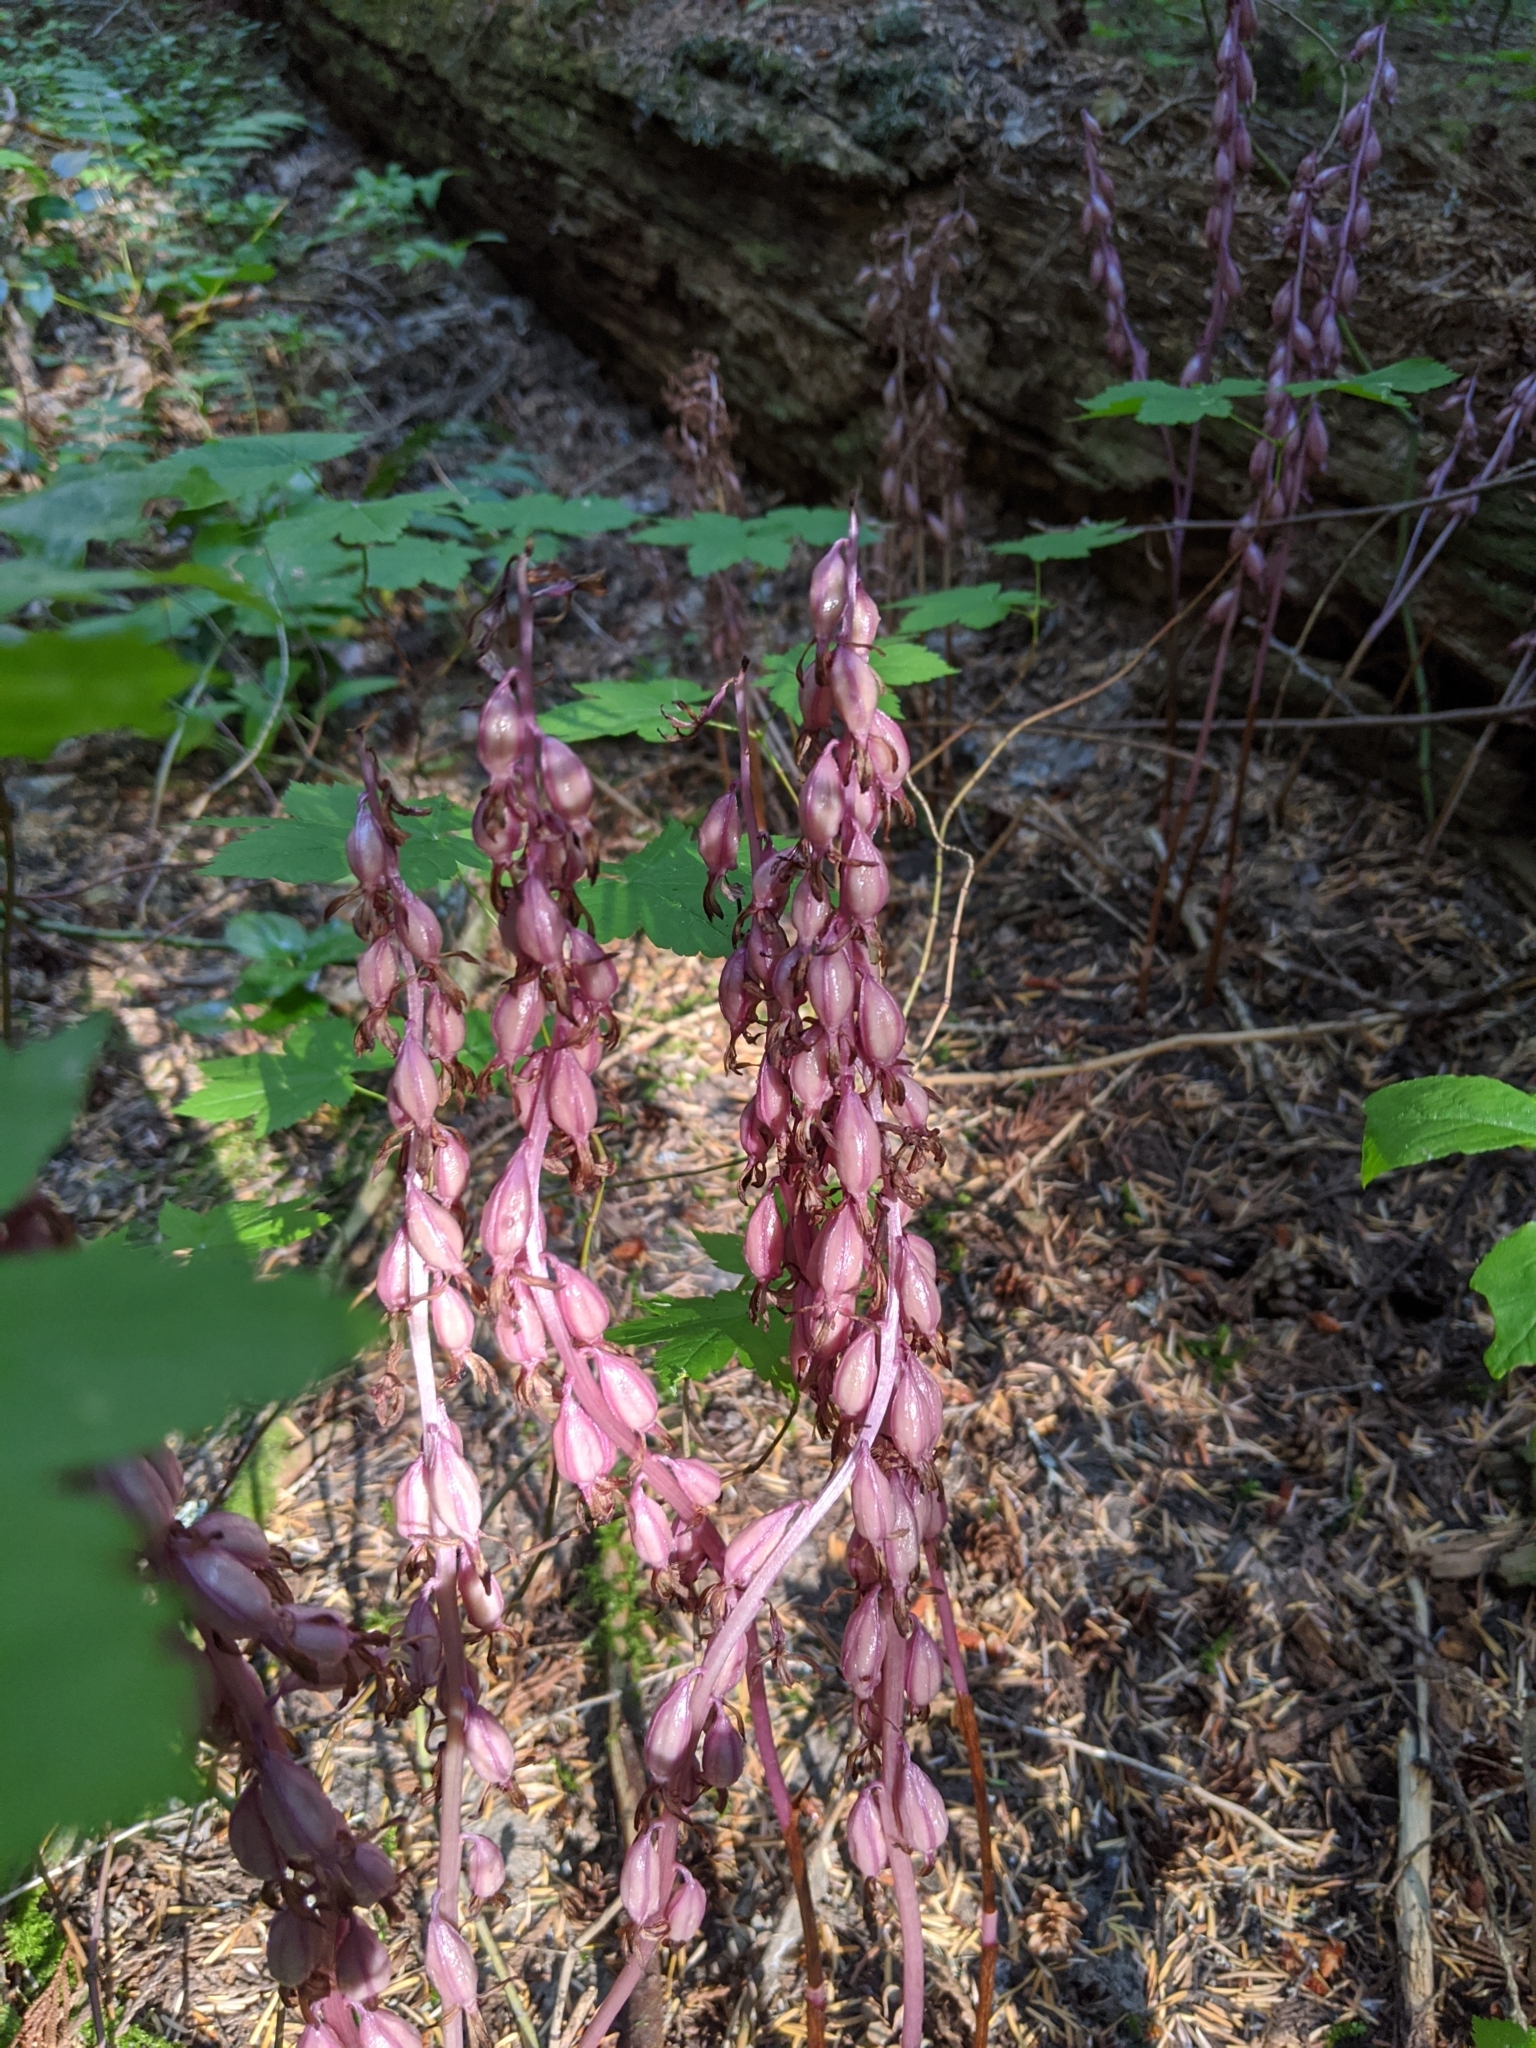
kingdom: Plantae
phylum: Tracheophyta
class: Liliopsida
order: Asparagales
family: Orchidaceae
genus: Corallorhiza
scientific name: Corallorhiza mertensiana
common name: Pacific coralroot
